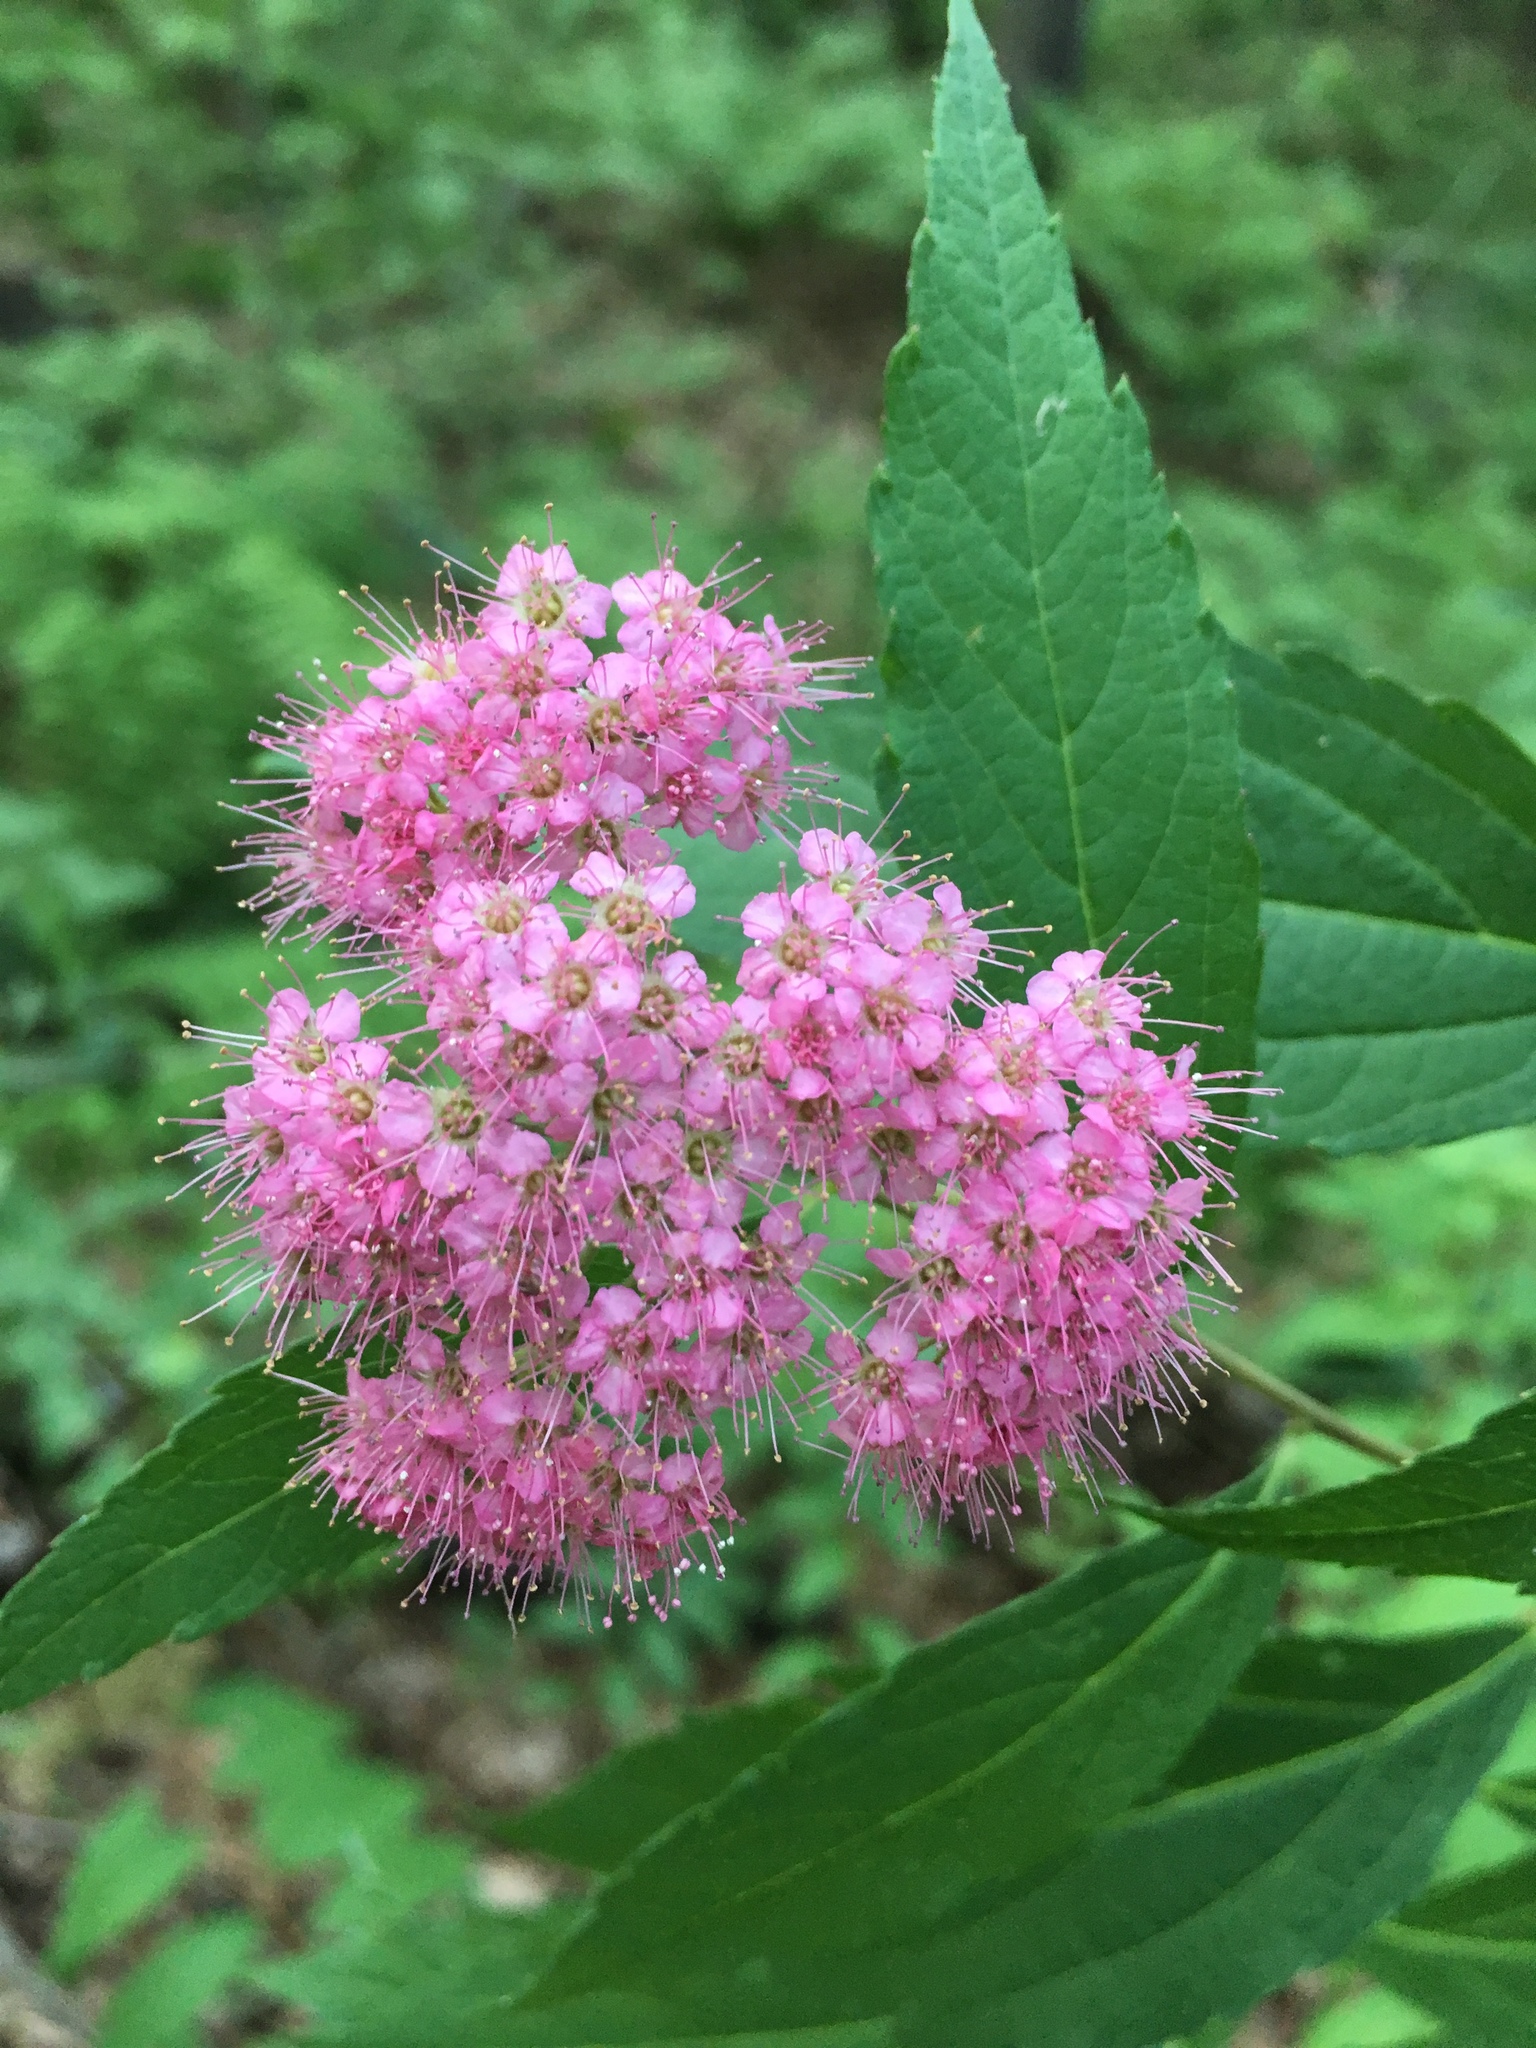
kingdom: Plantae
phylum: Tracheophyta
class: Magnoliopsida
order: Rosales
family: Rosaceae
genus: Spiraea
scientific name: Spiraea japonica
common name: Japanese spiraea
